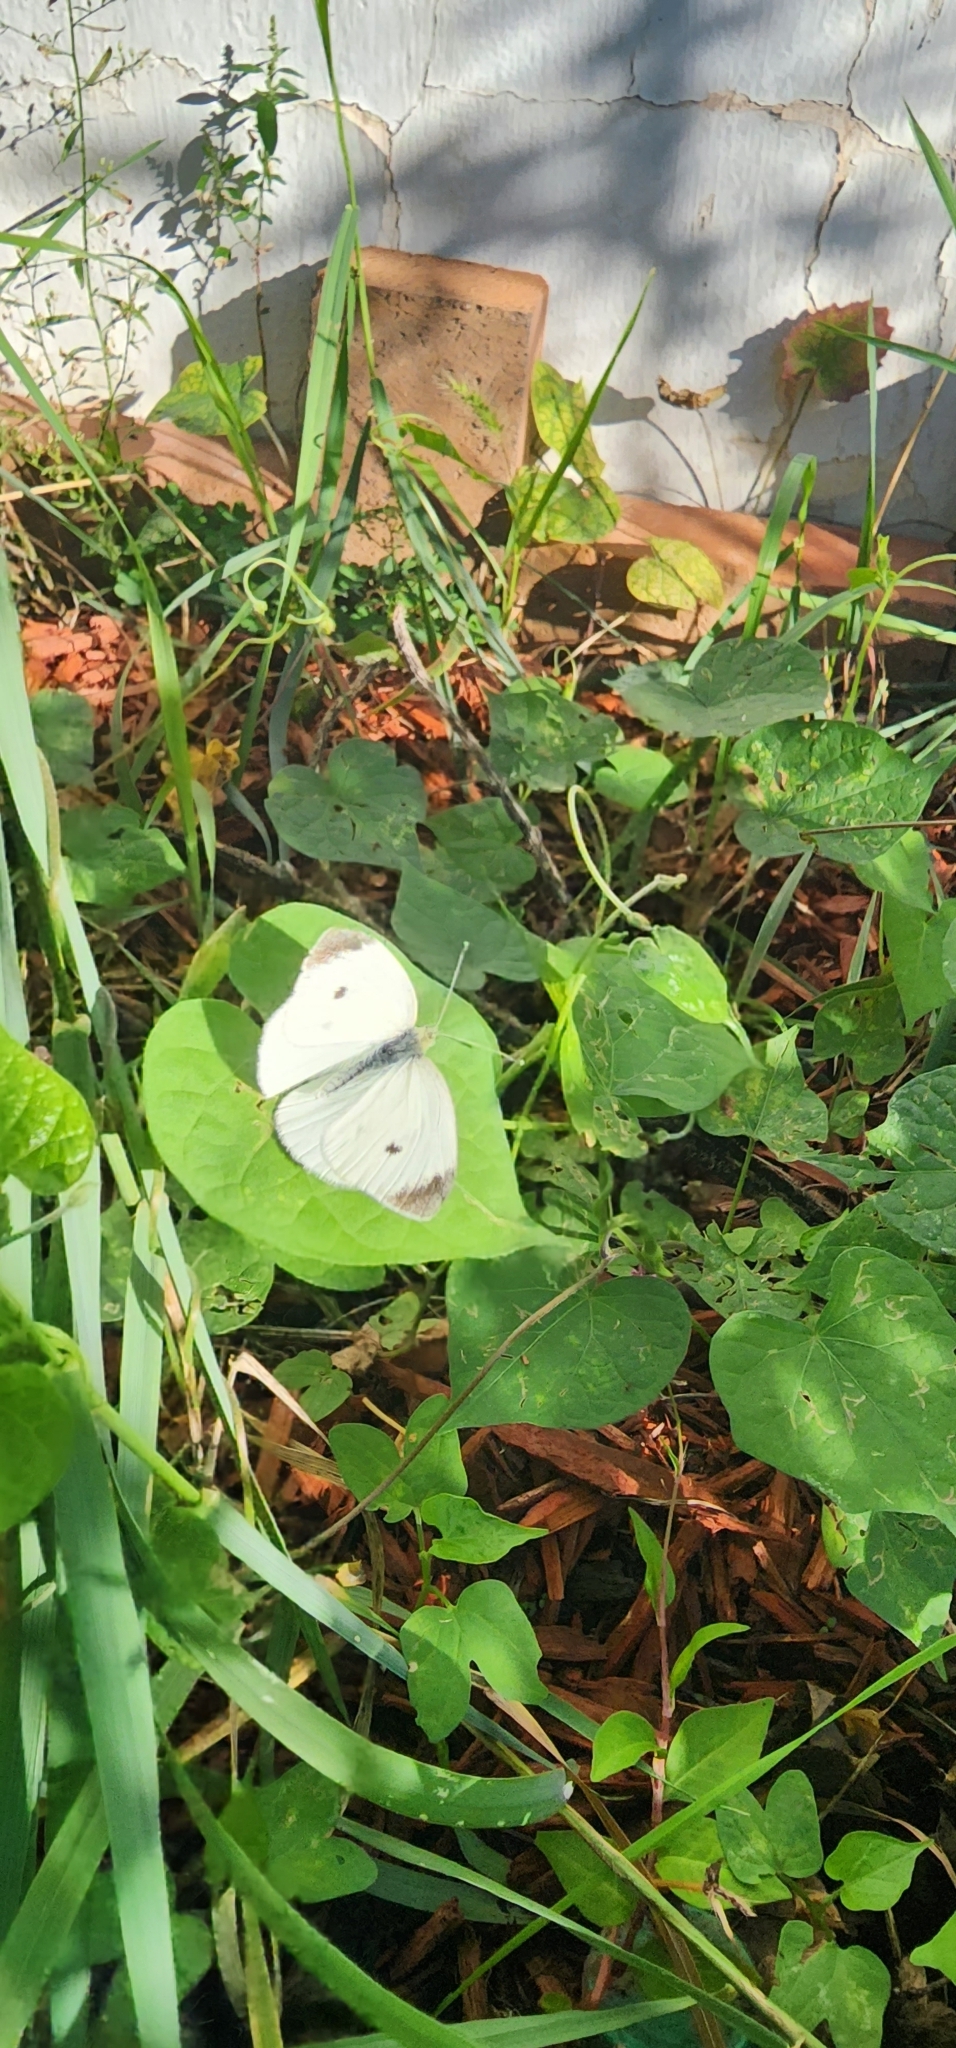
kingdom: Animalia
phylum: Arthropoda
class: Insecta
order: Lepidoptera
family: Pieridae
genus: Pieris
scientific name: Pieris rapae
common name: Small white
